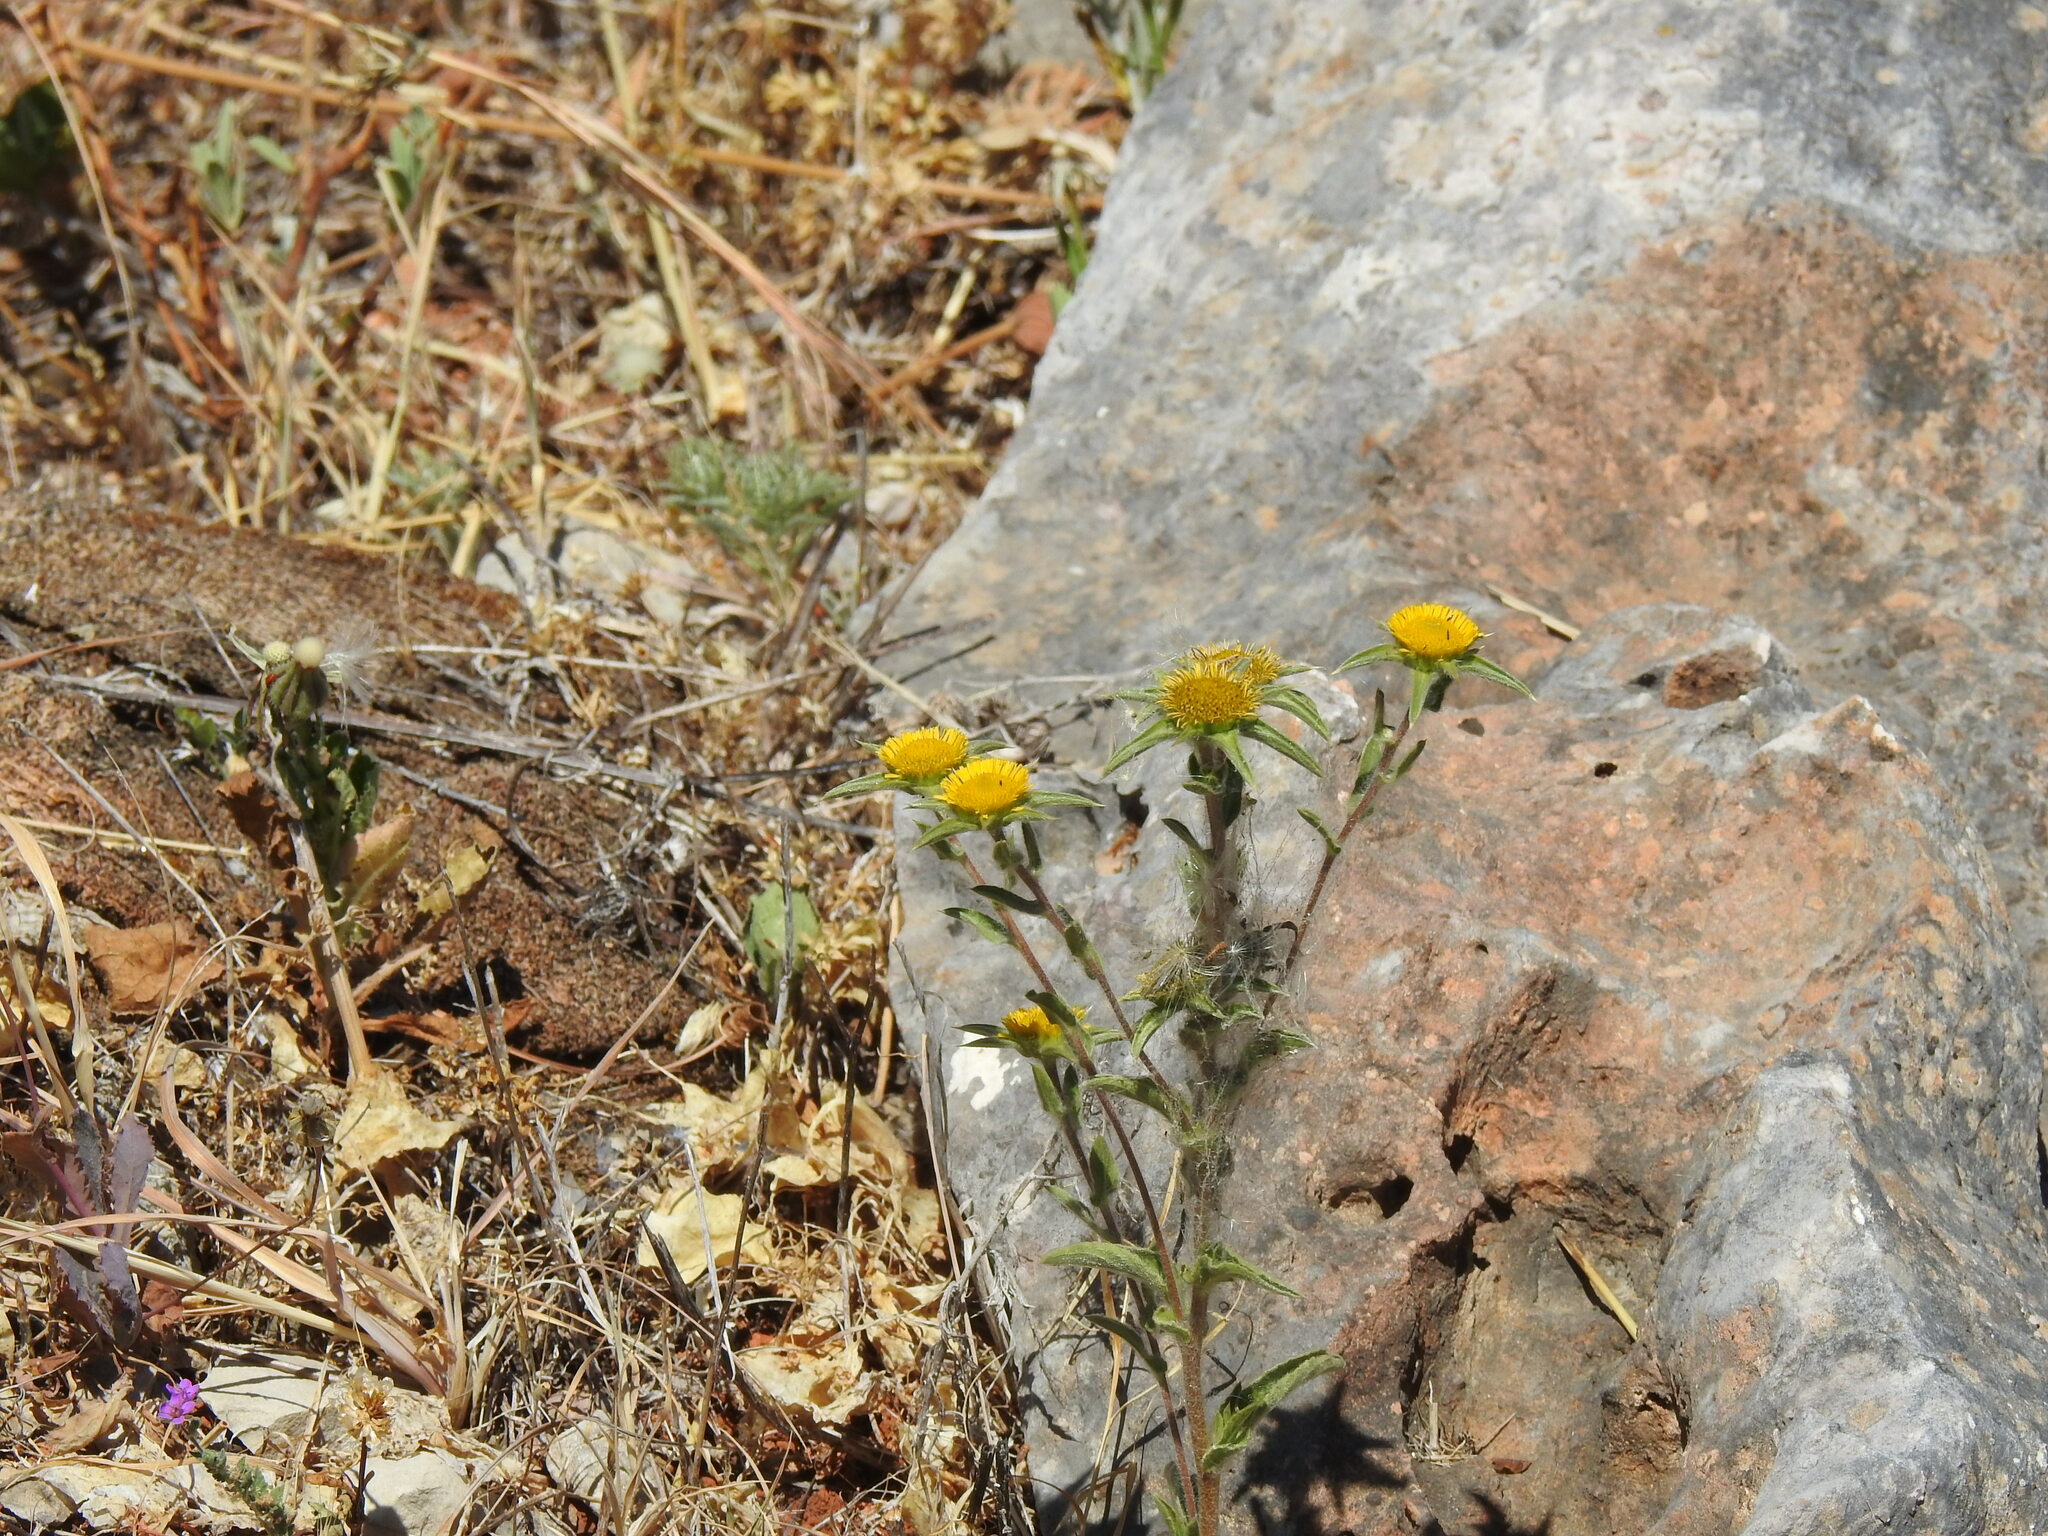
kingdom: Plantae
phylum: Tracheophyta
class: Magnoliopsida
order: Asterales
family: Asteraceae
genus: Pallenis
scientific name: Pallenis spinosa
